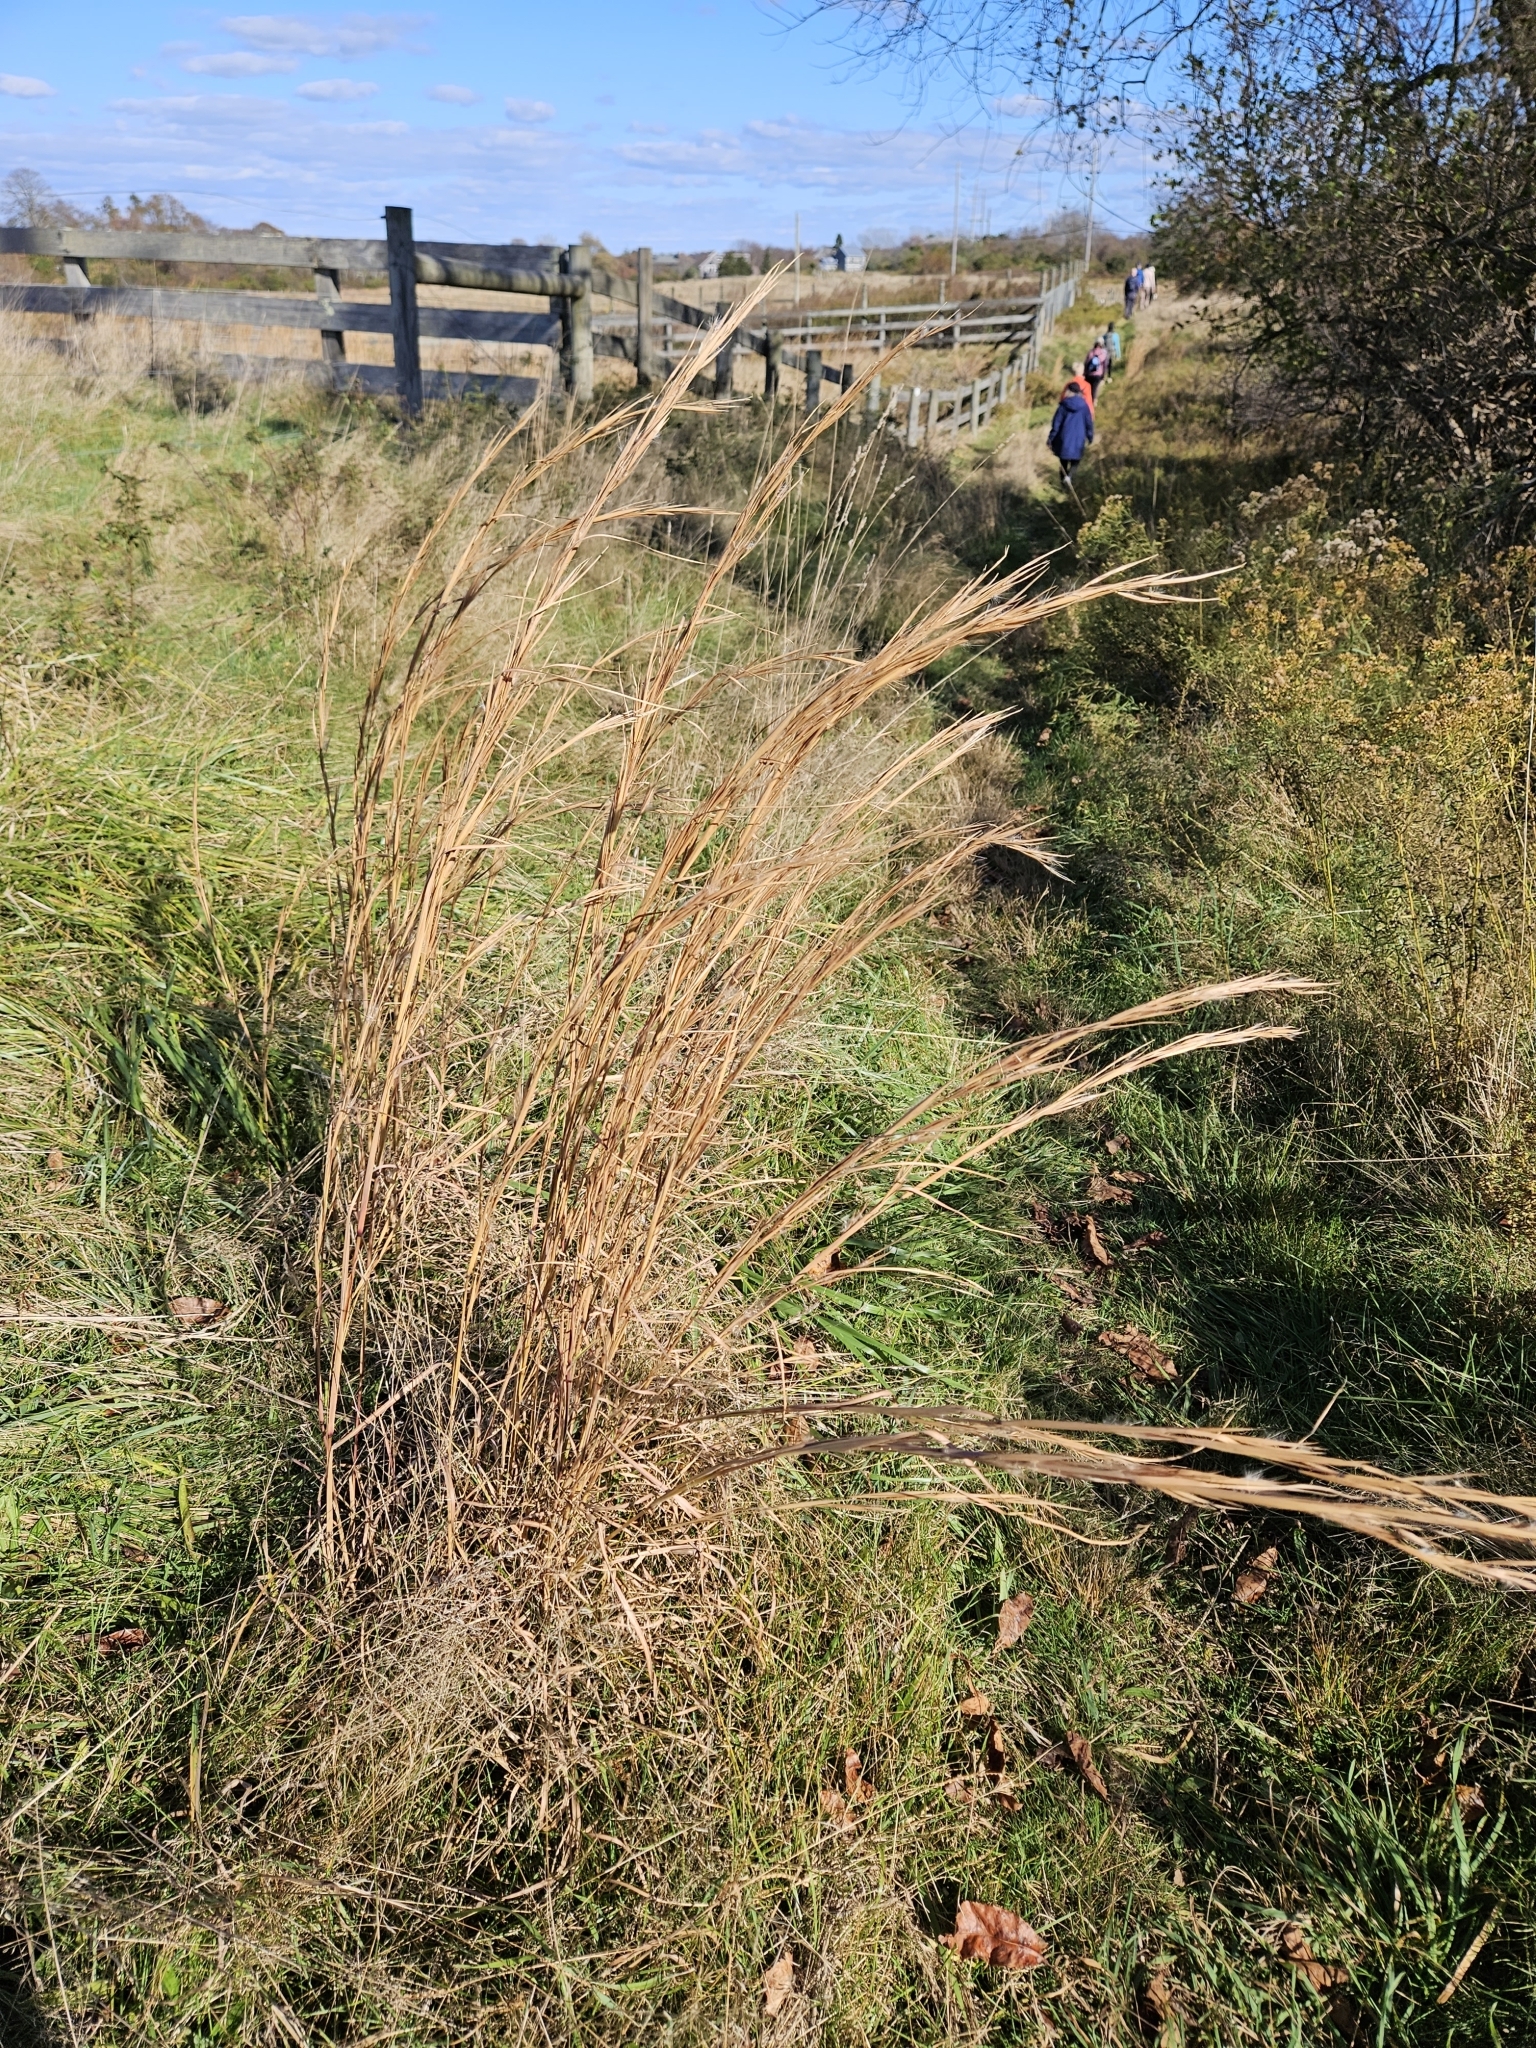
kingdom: Plantae
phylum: Tracheophyta
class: Liliopsida
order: Poales
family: Poaceae
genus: Andropogon
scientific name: Andropogon glomeratus
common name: Bushy beard grass
